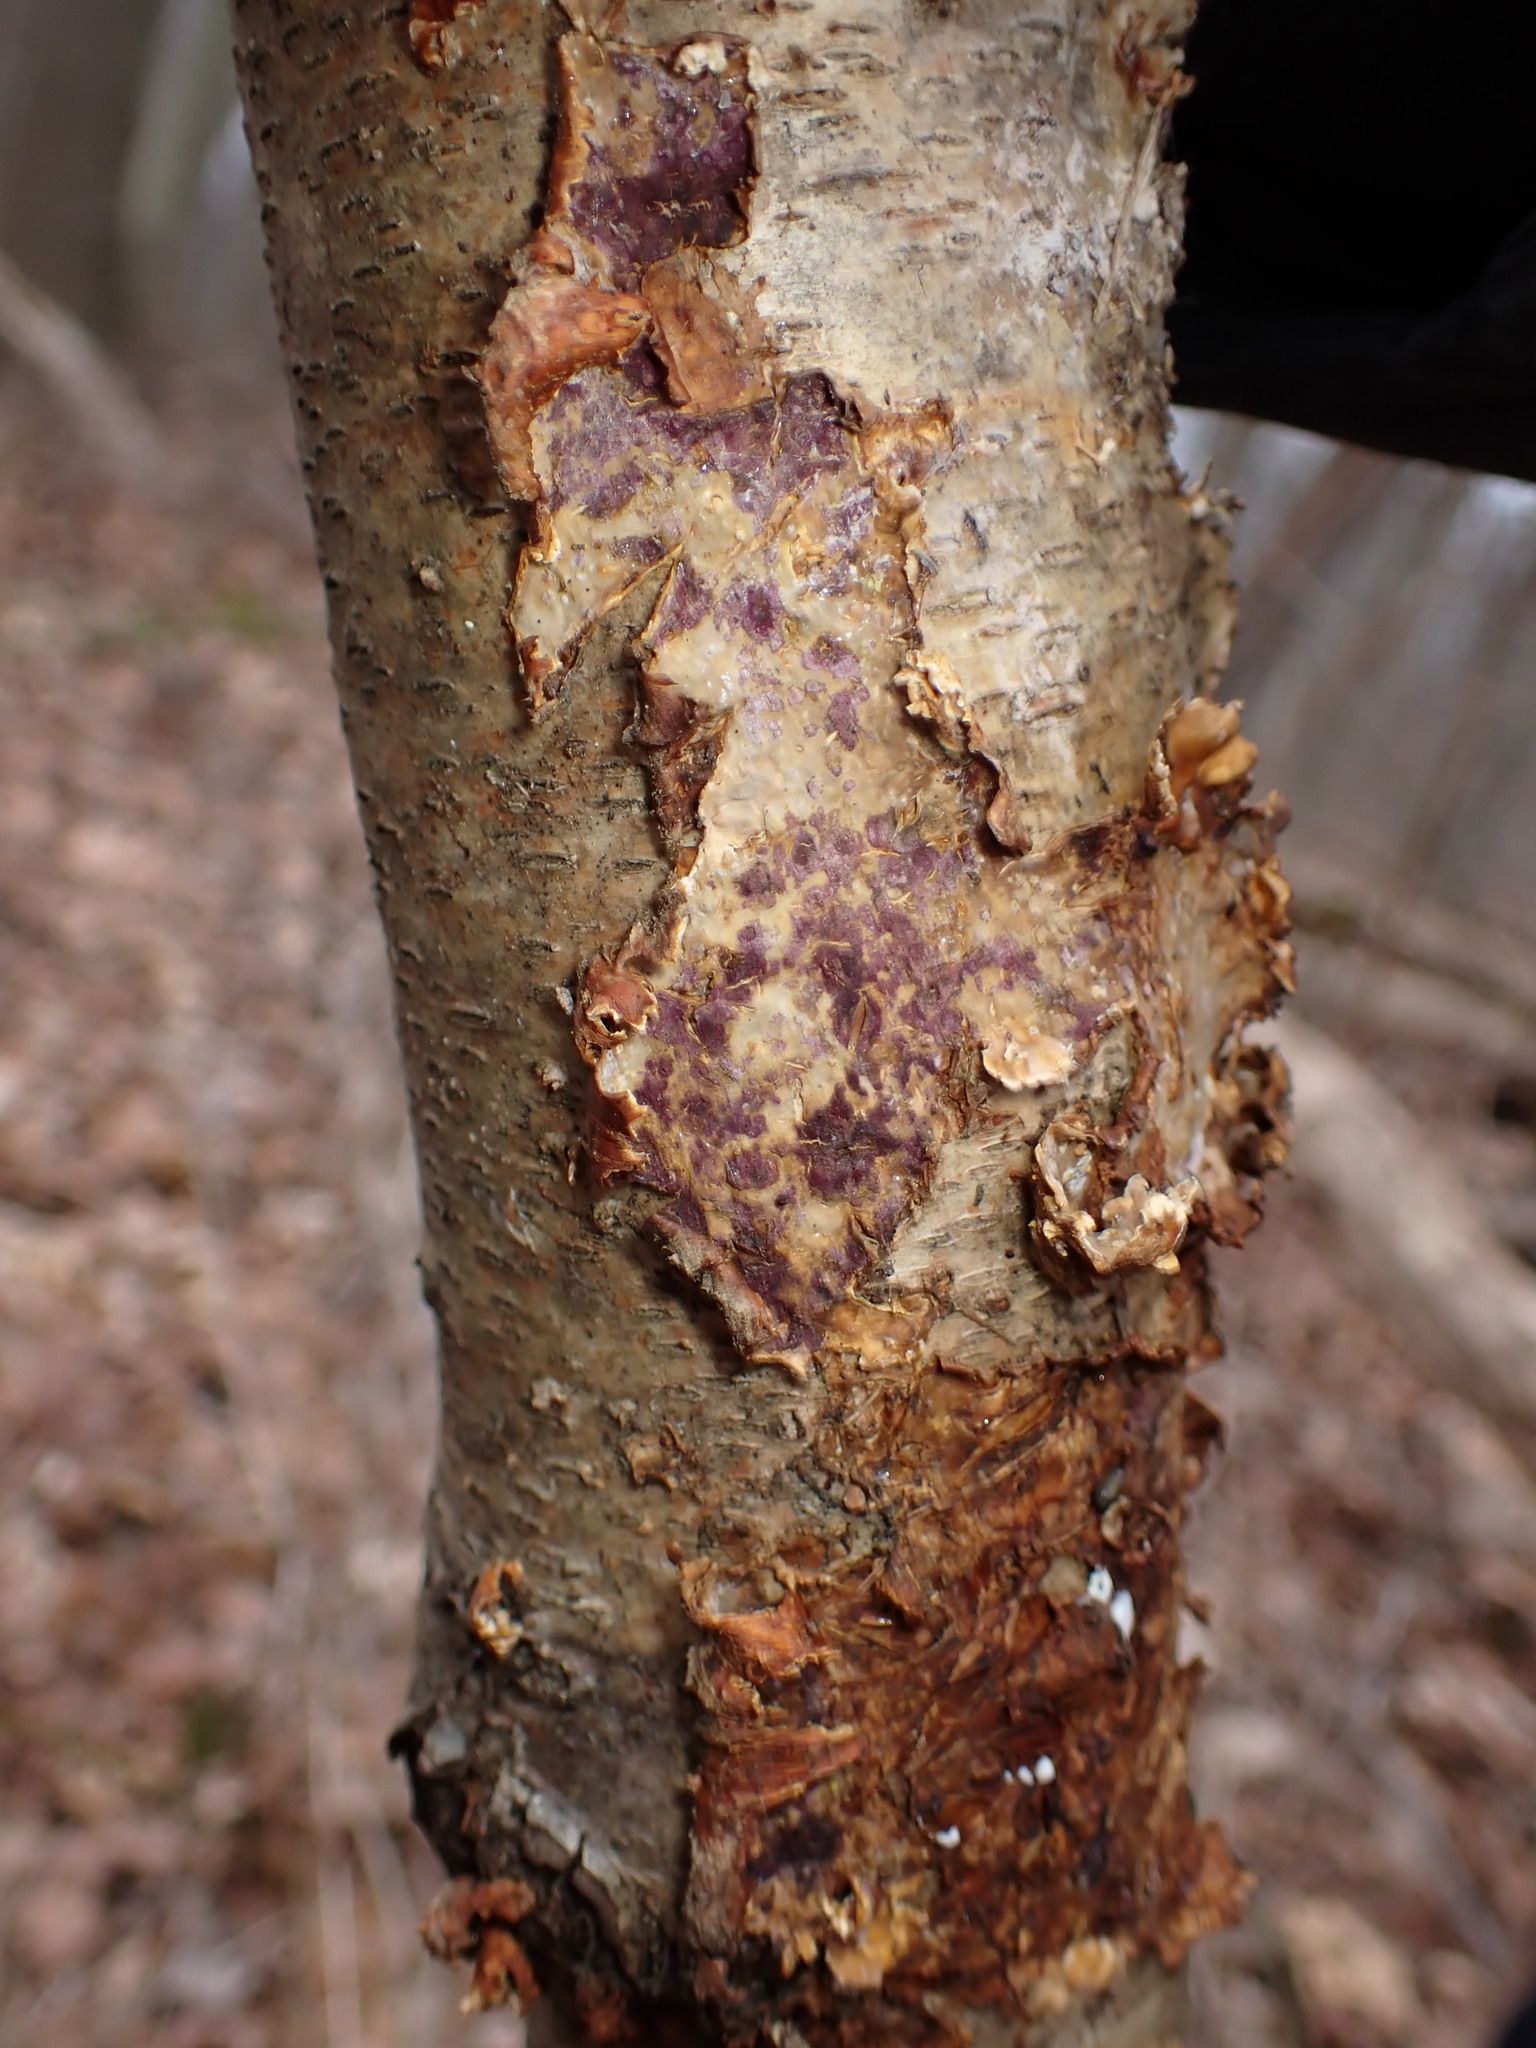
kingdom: Fungi
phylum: Ascomycota
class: Sordariomycetes
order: Hypocreales
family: Hypocreaceae
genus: Sphaerostilbella
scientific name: Sphaerostilbella berkeleyana
